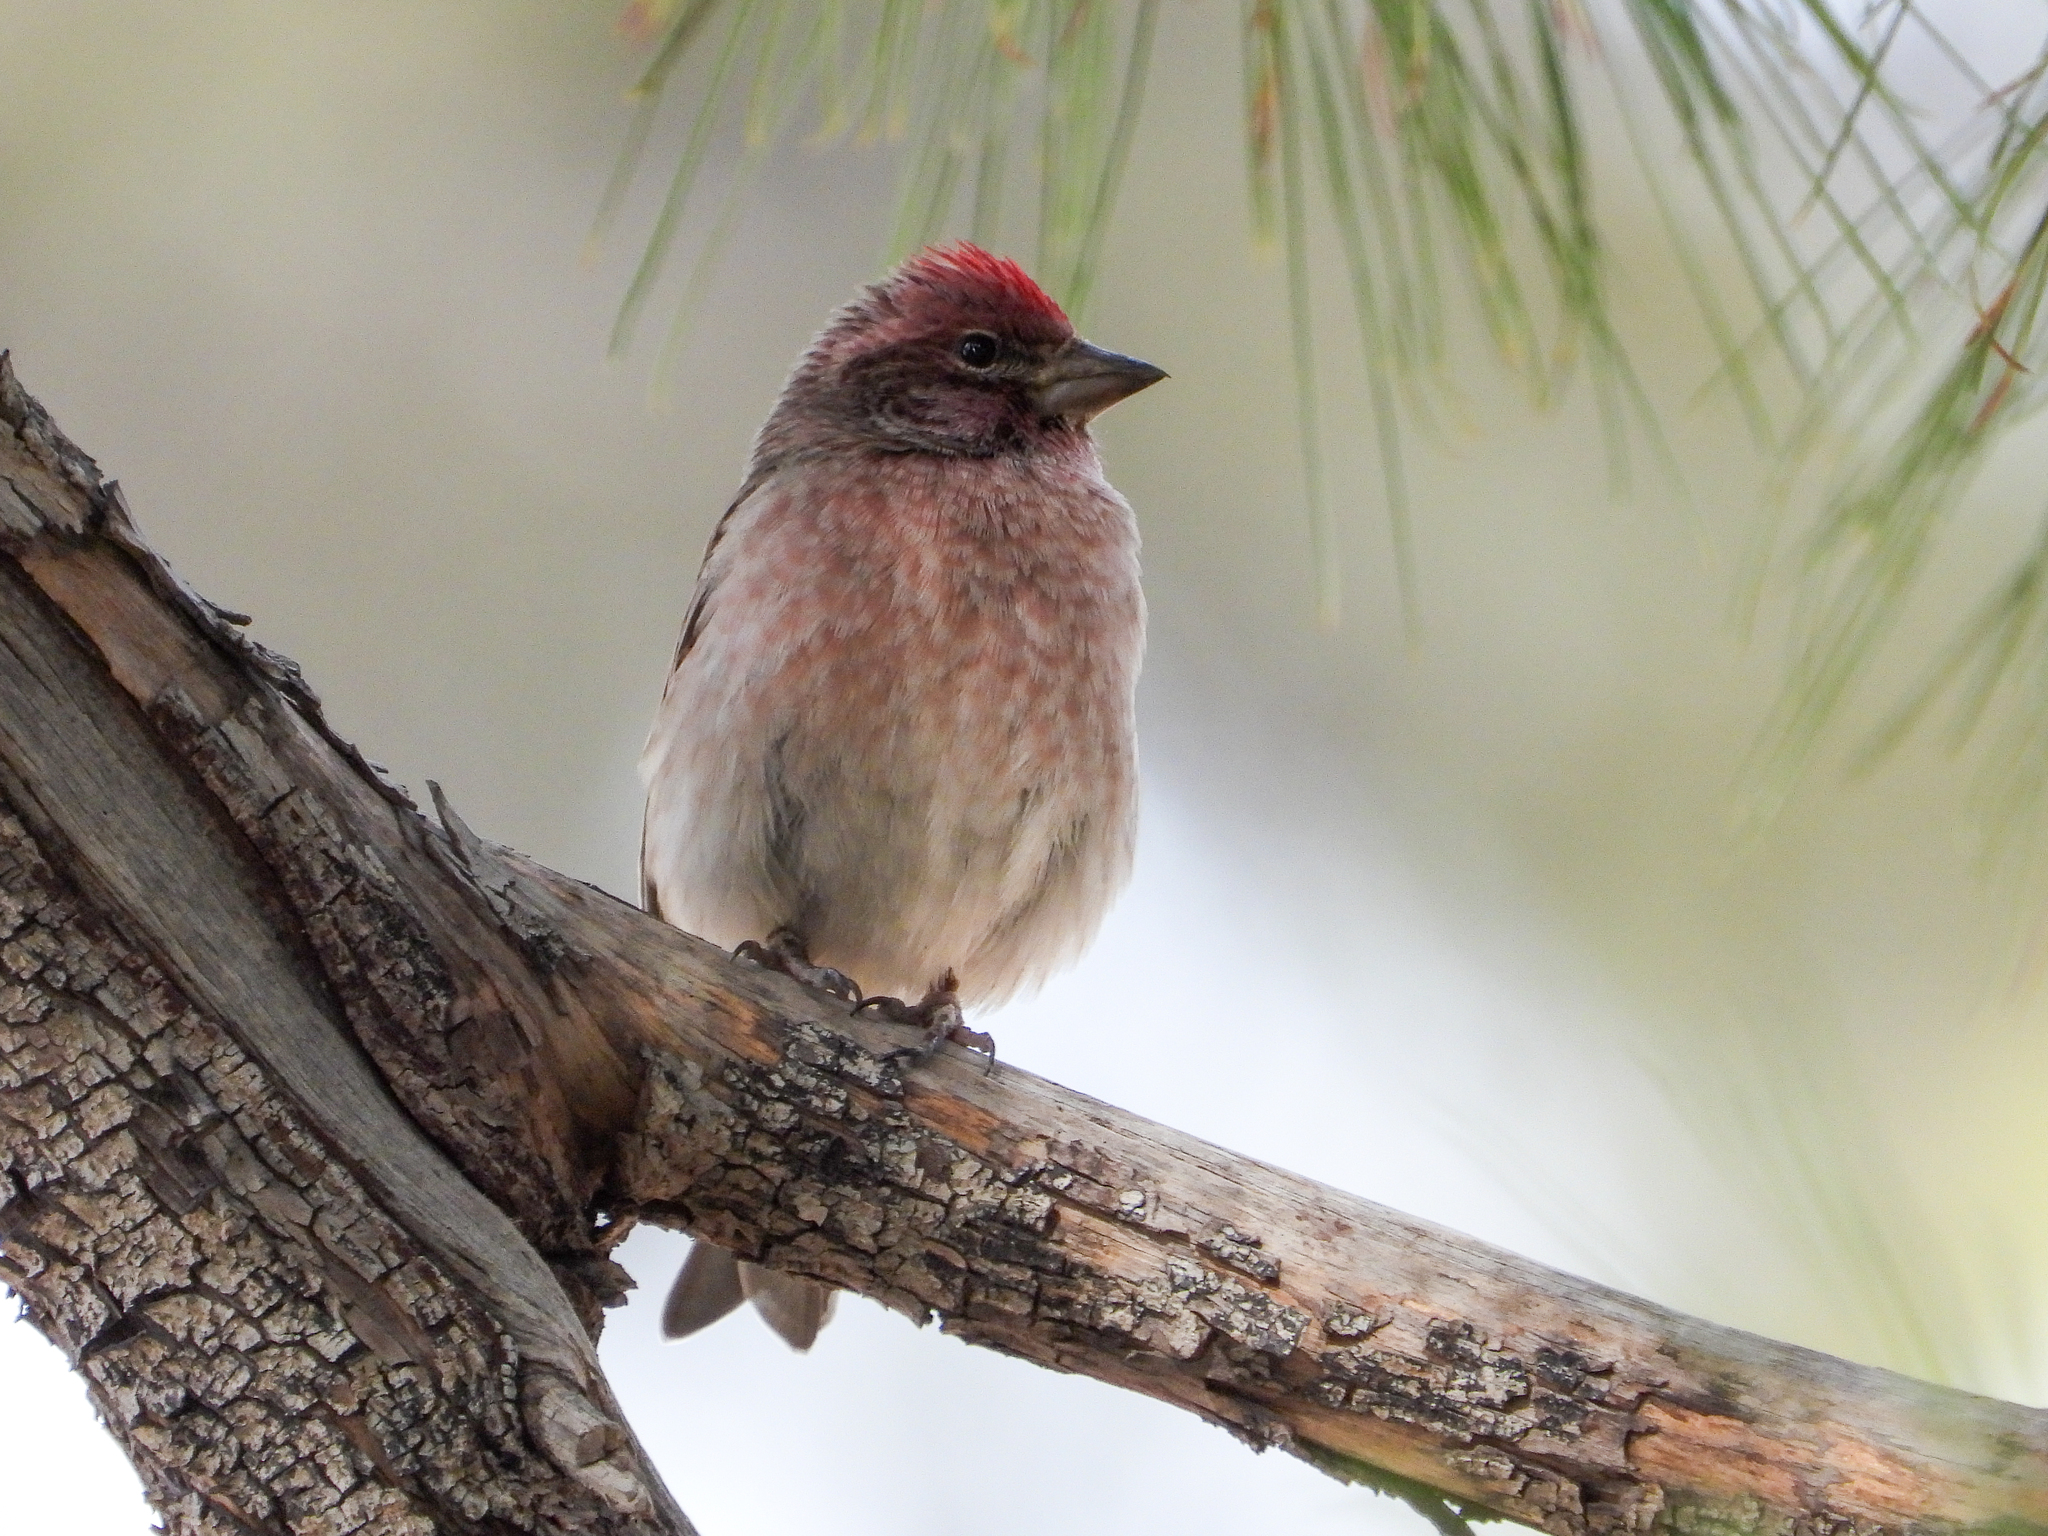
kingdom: Animalia
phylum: Chordata
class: Aves
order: Passeriformes
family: Fringillidae
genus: Haemorhous
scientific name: Haemorhous cassinii
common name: Cassin's finch
